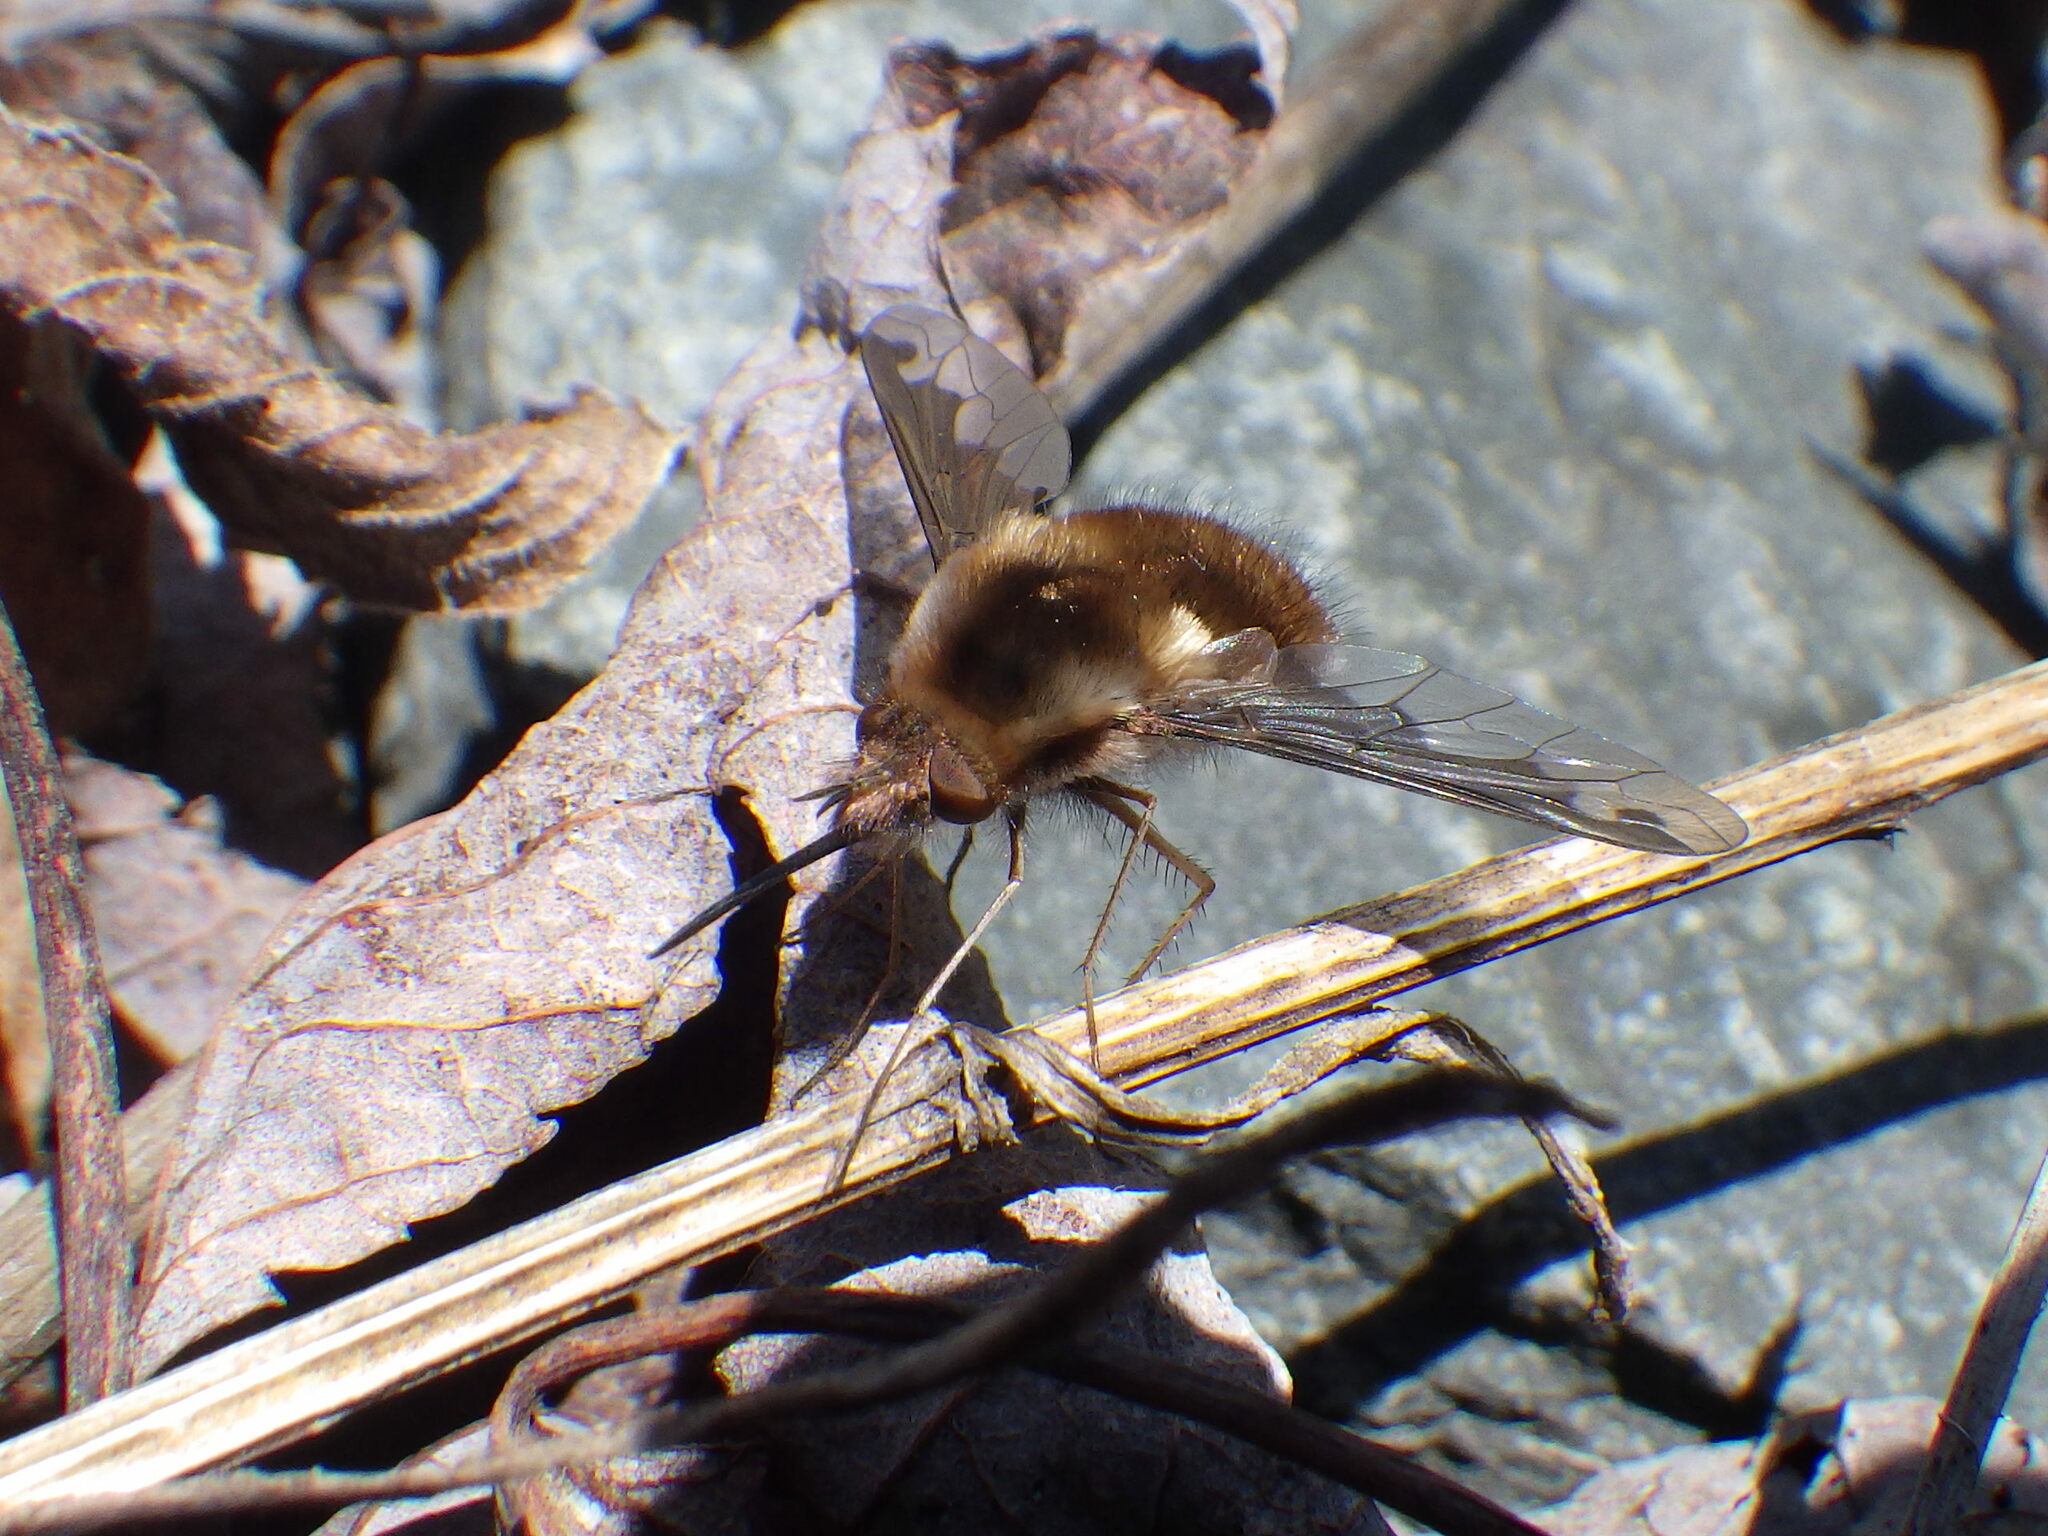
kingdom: Animalia
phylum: Arthropoda
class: Insecta
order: Diptera
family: Bombyliidae
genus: Bombylius
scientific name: Bombylius major
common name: Bee fly
